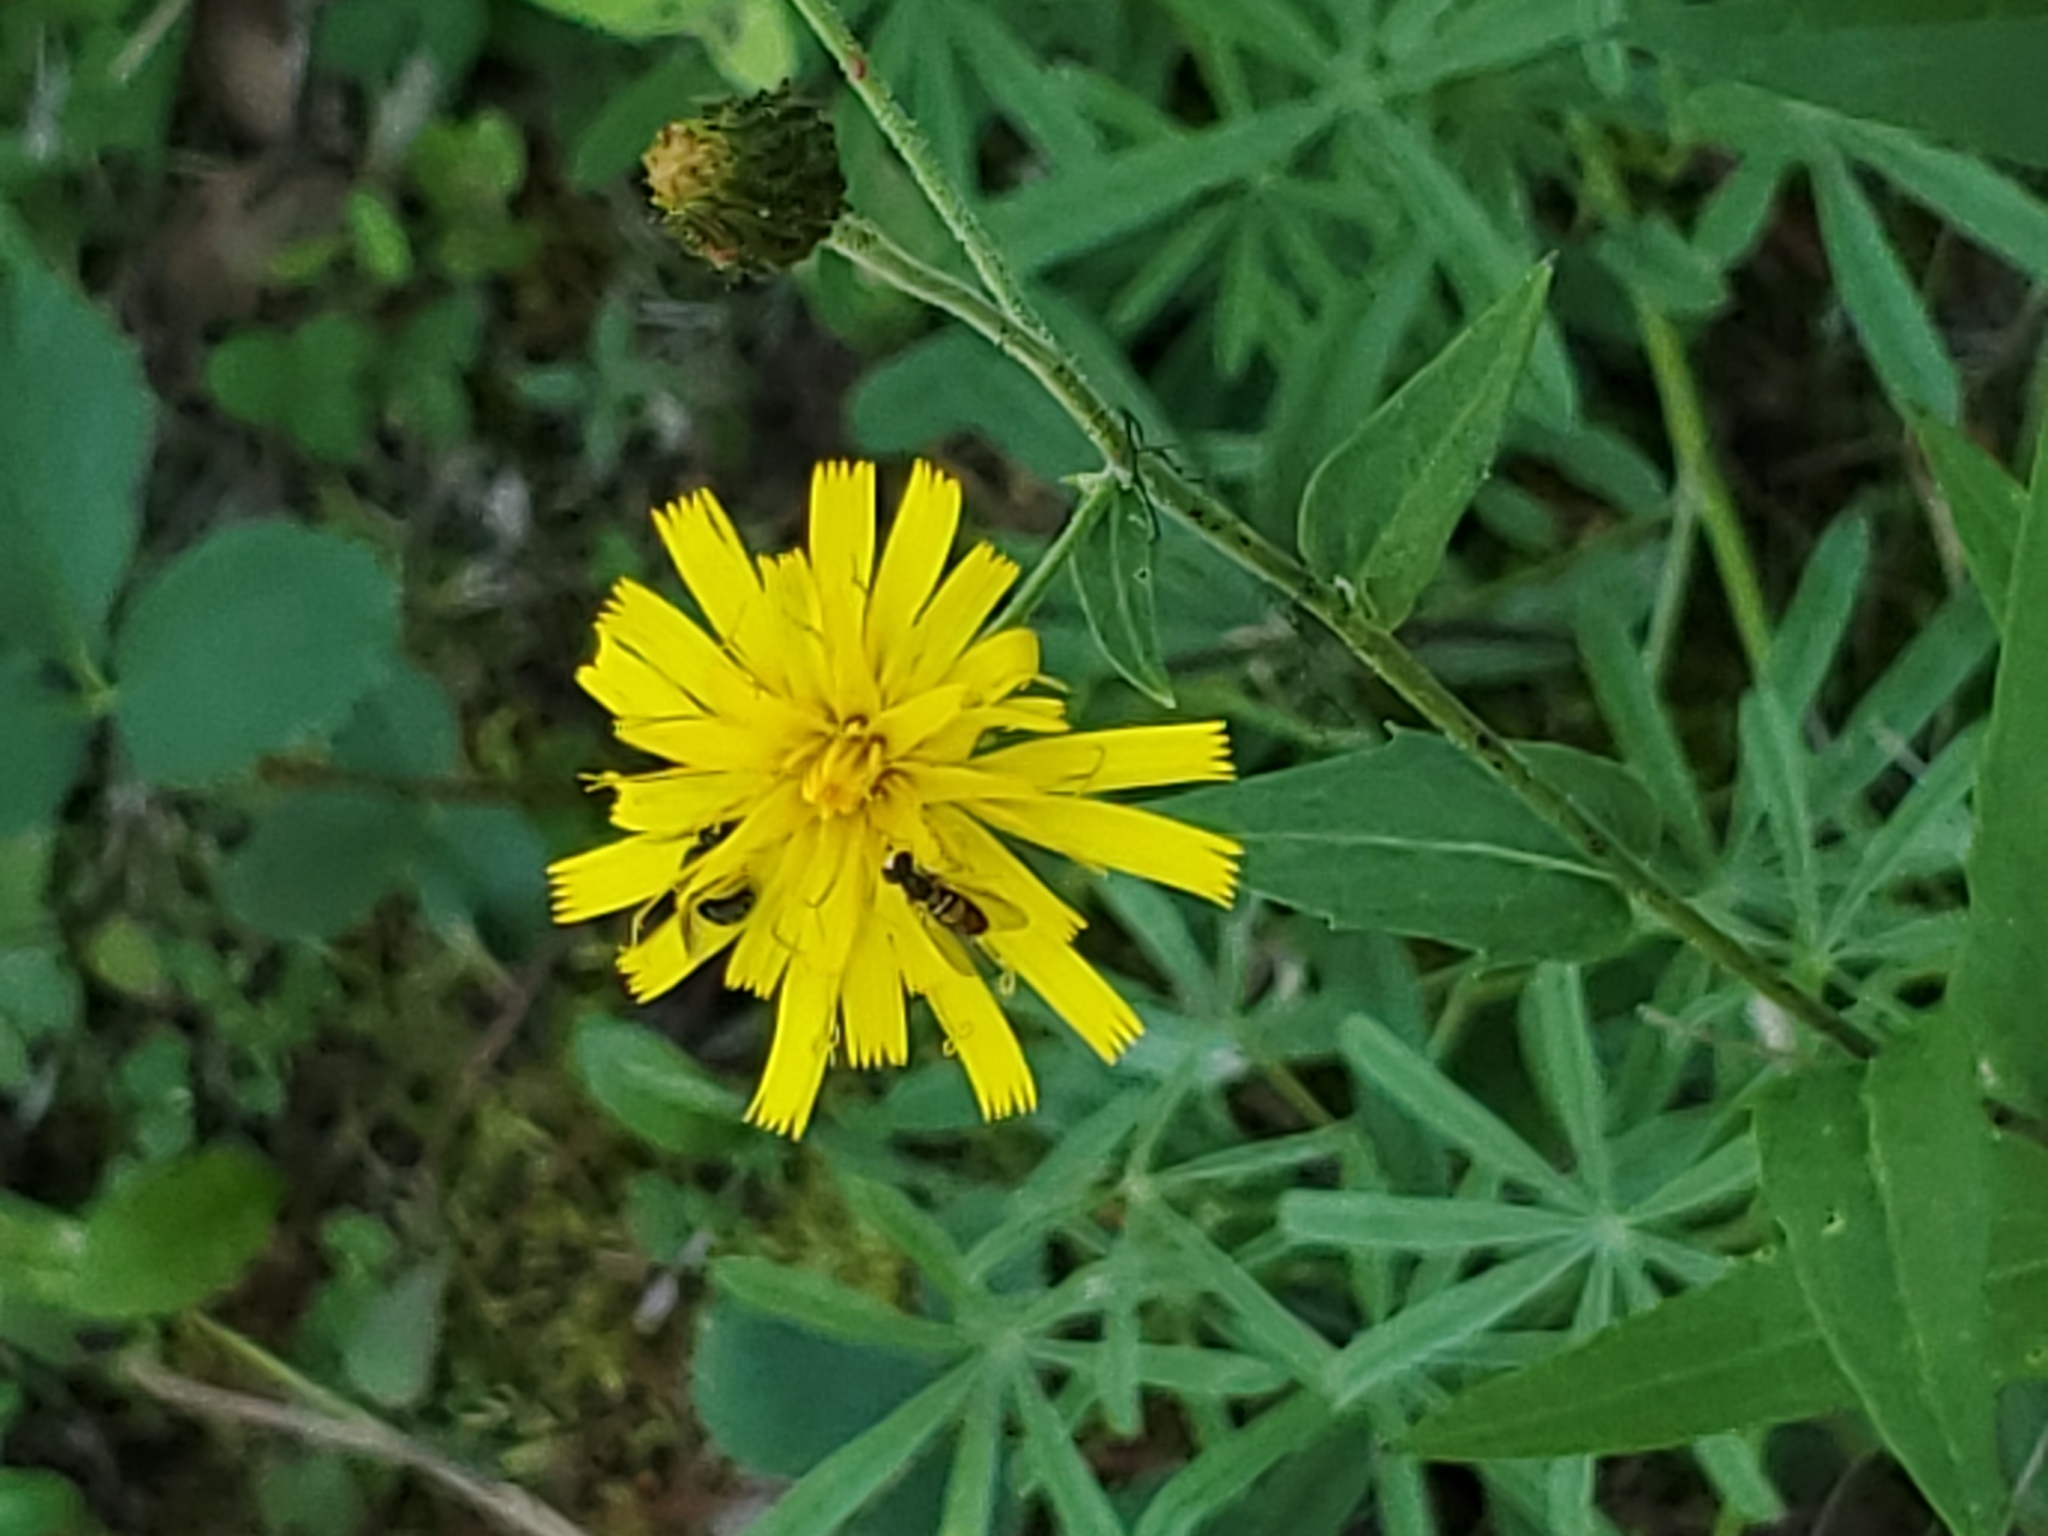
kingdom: Animalia
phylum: Arthropoda
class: Insecta
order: Diptera
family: Syrphidae
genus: Toxomerus
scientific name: Toxomerus marginatus
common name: Syrphid fly
